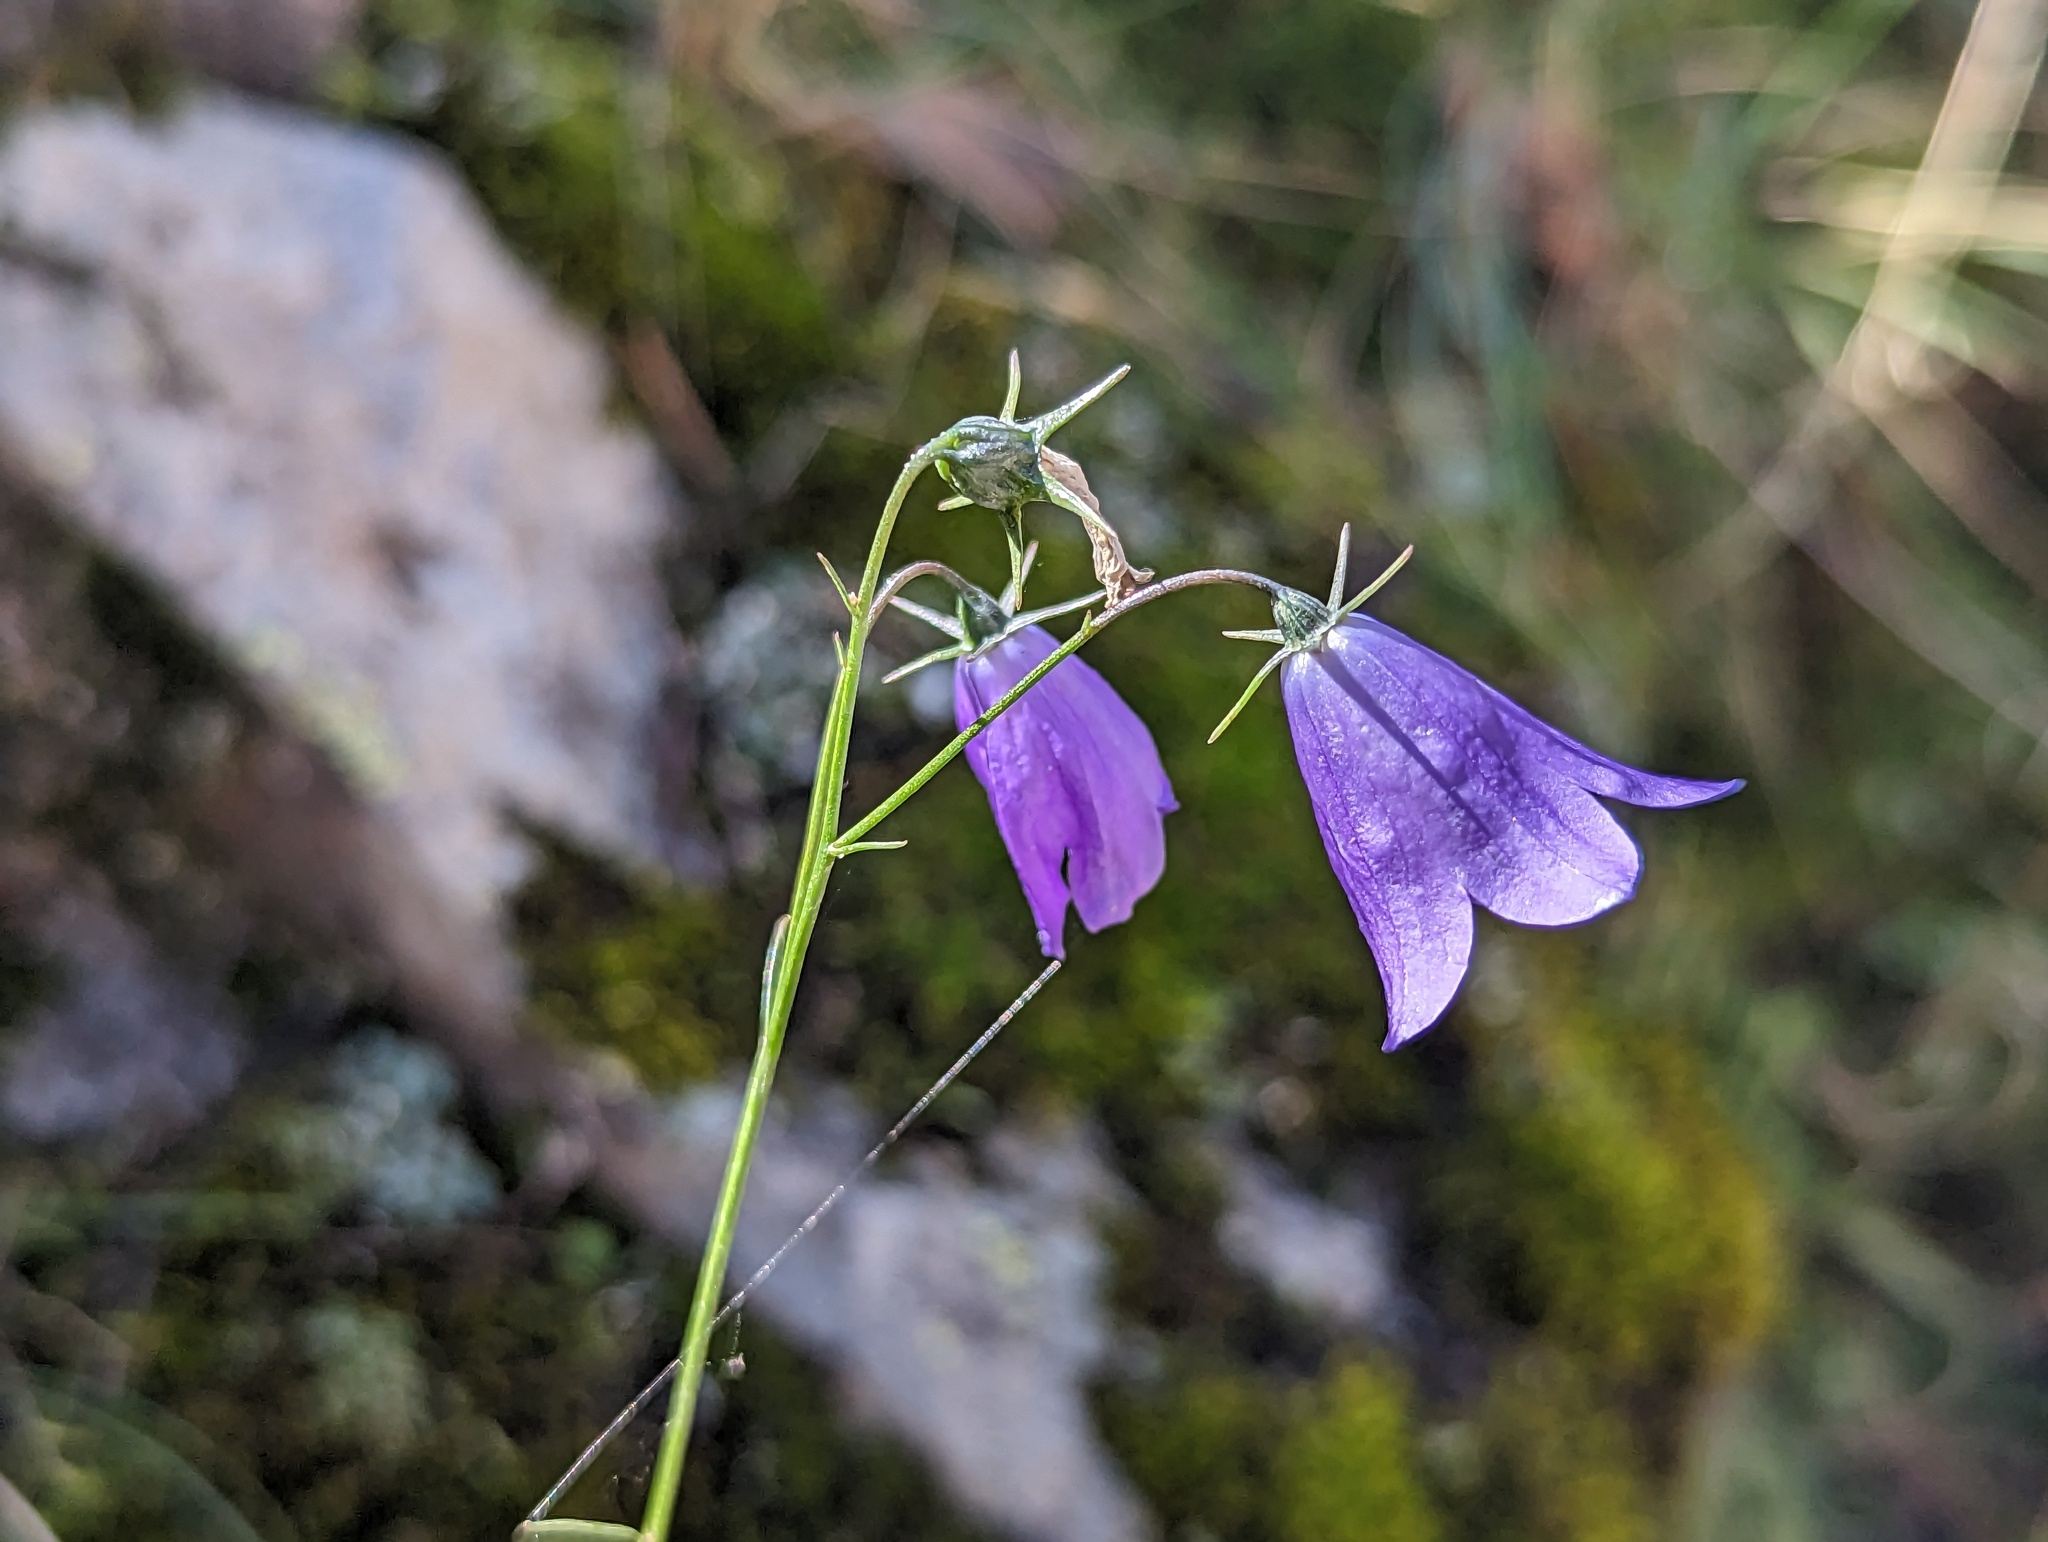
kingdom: Plantae
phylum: Tracheophyta
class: Magnoliopsida
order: Asterales
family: Campanulaceae
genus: Campanula
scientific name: Campanula
